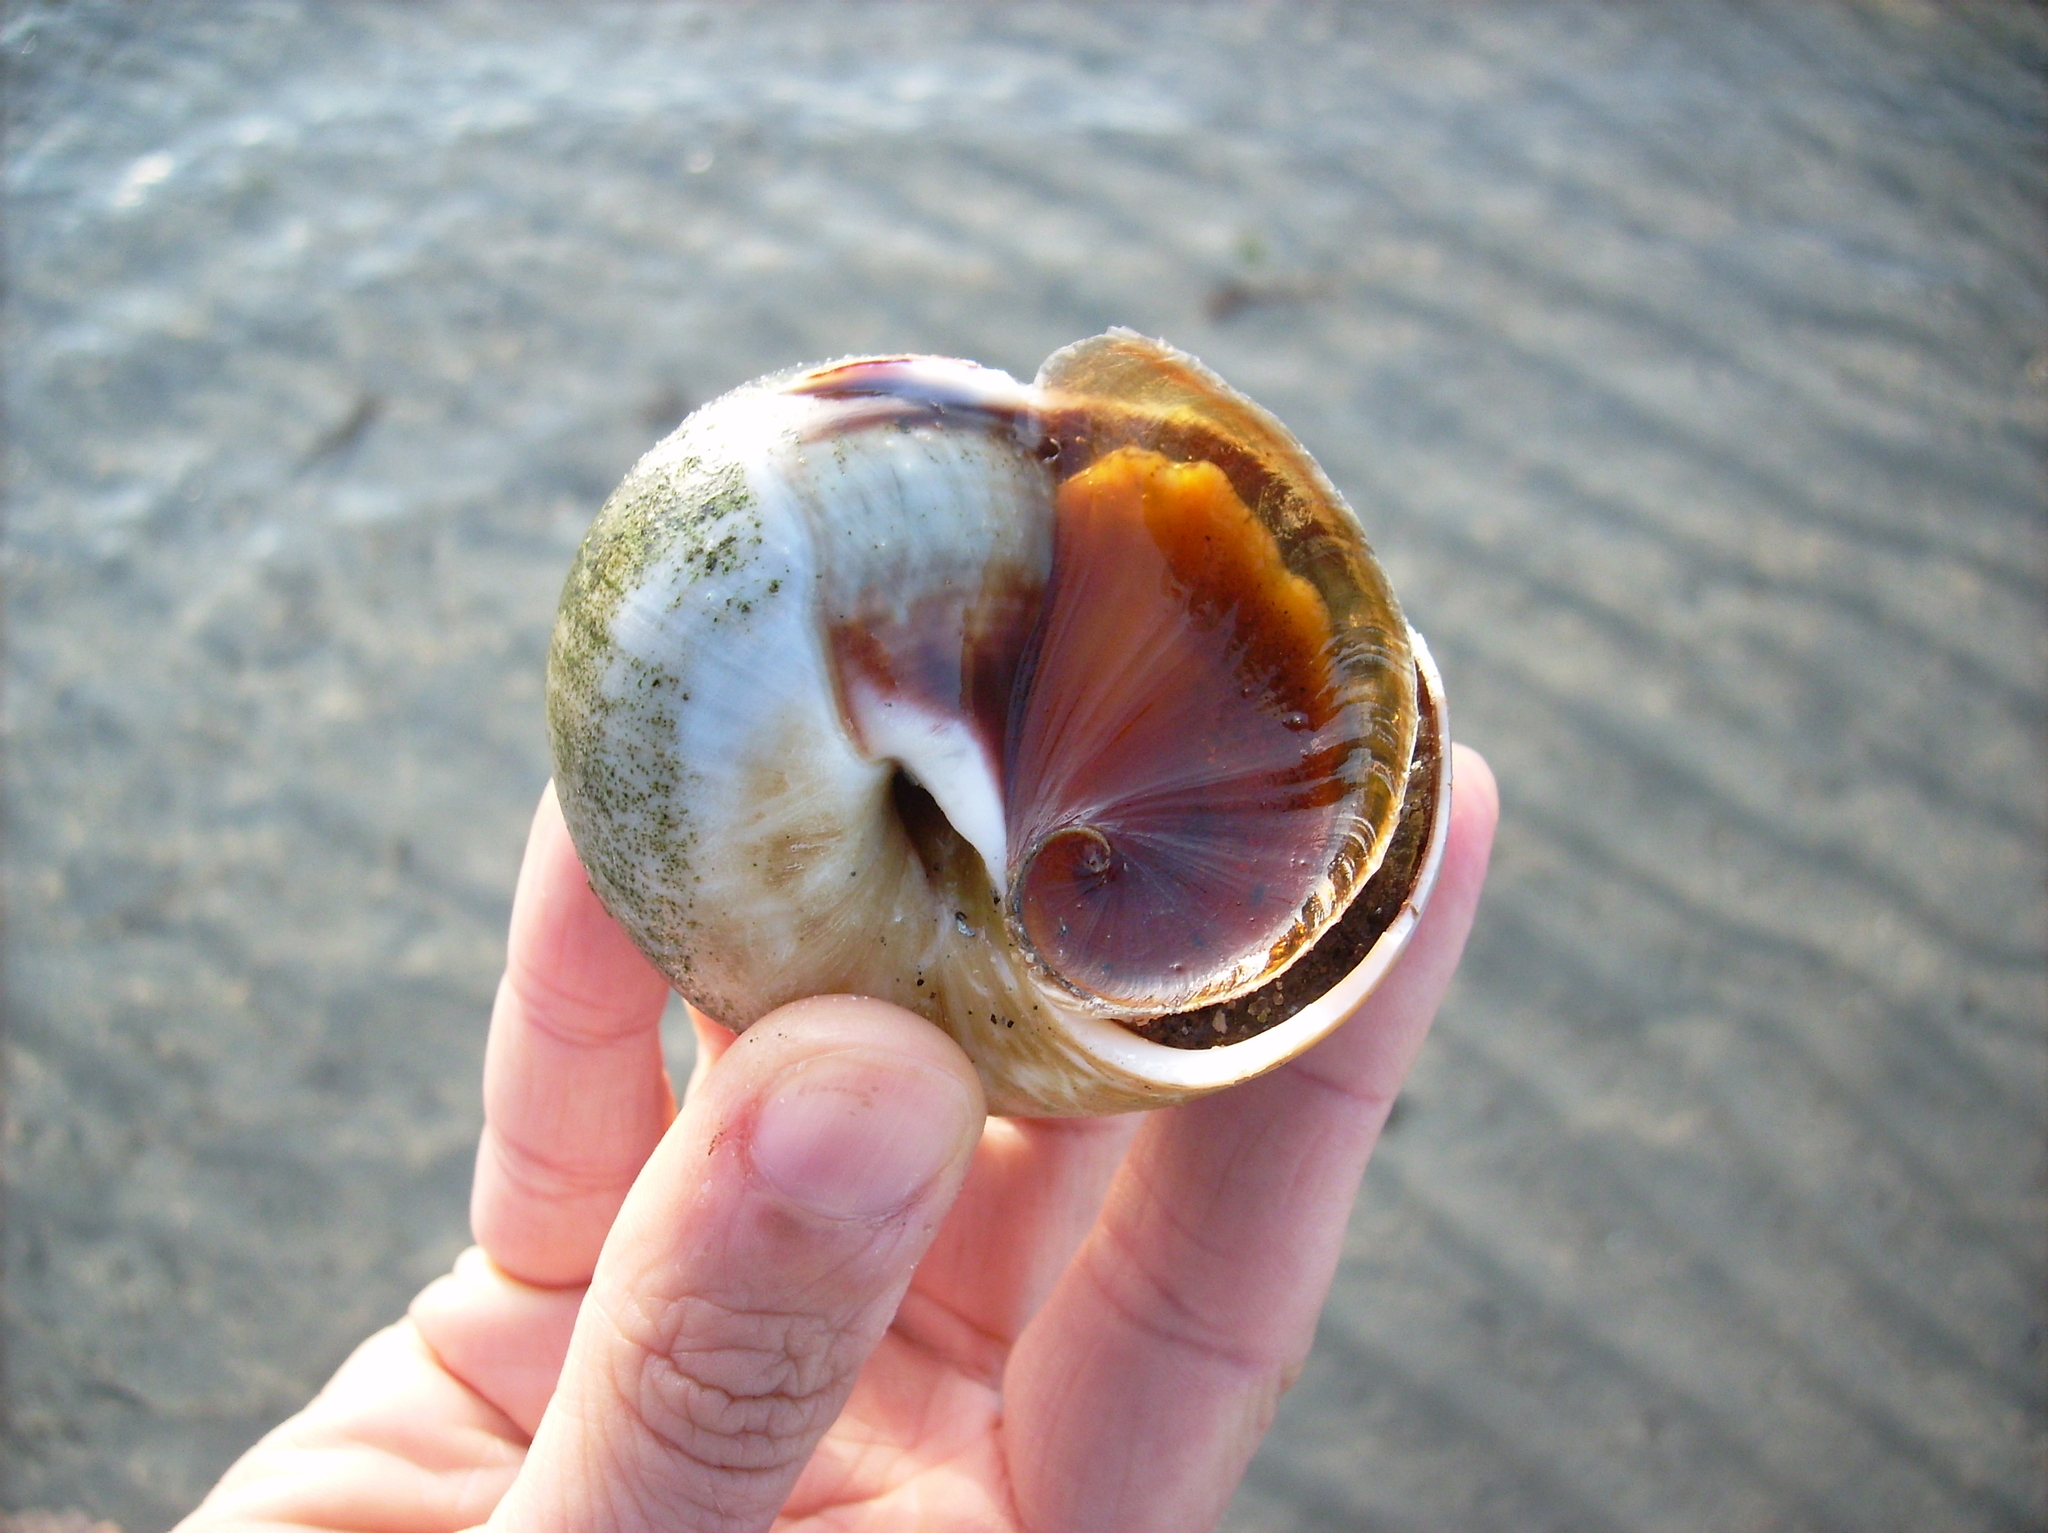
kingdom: Animalia
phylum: Mollusca
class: Gastropoda
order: Littorinimorpha
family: Naticidae
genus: Euspira
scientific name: Euspira heros
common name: Common northern moonsnail
